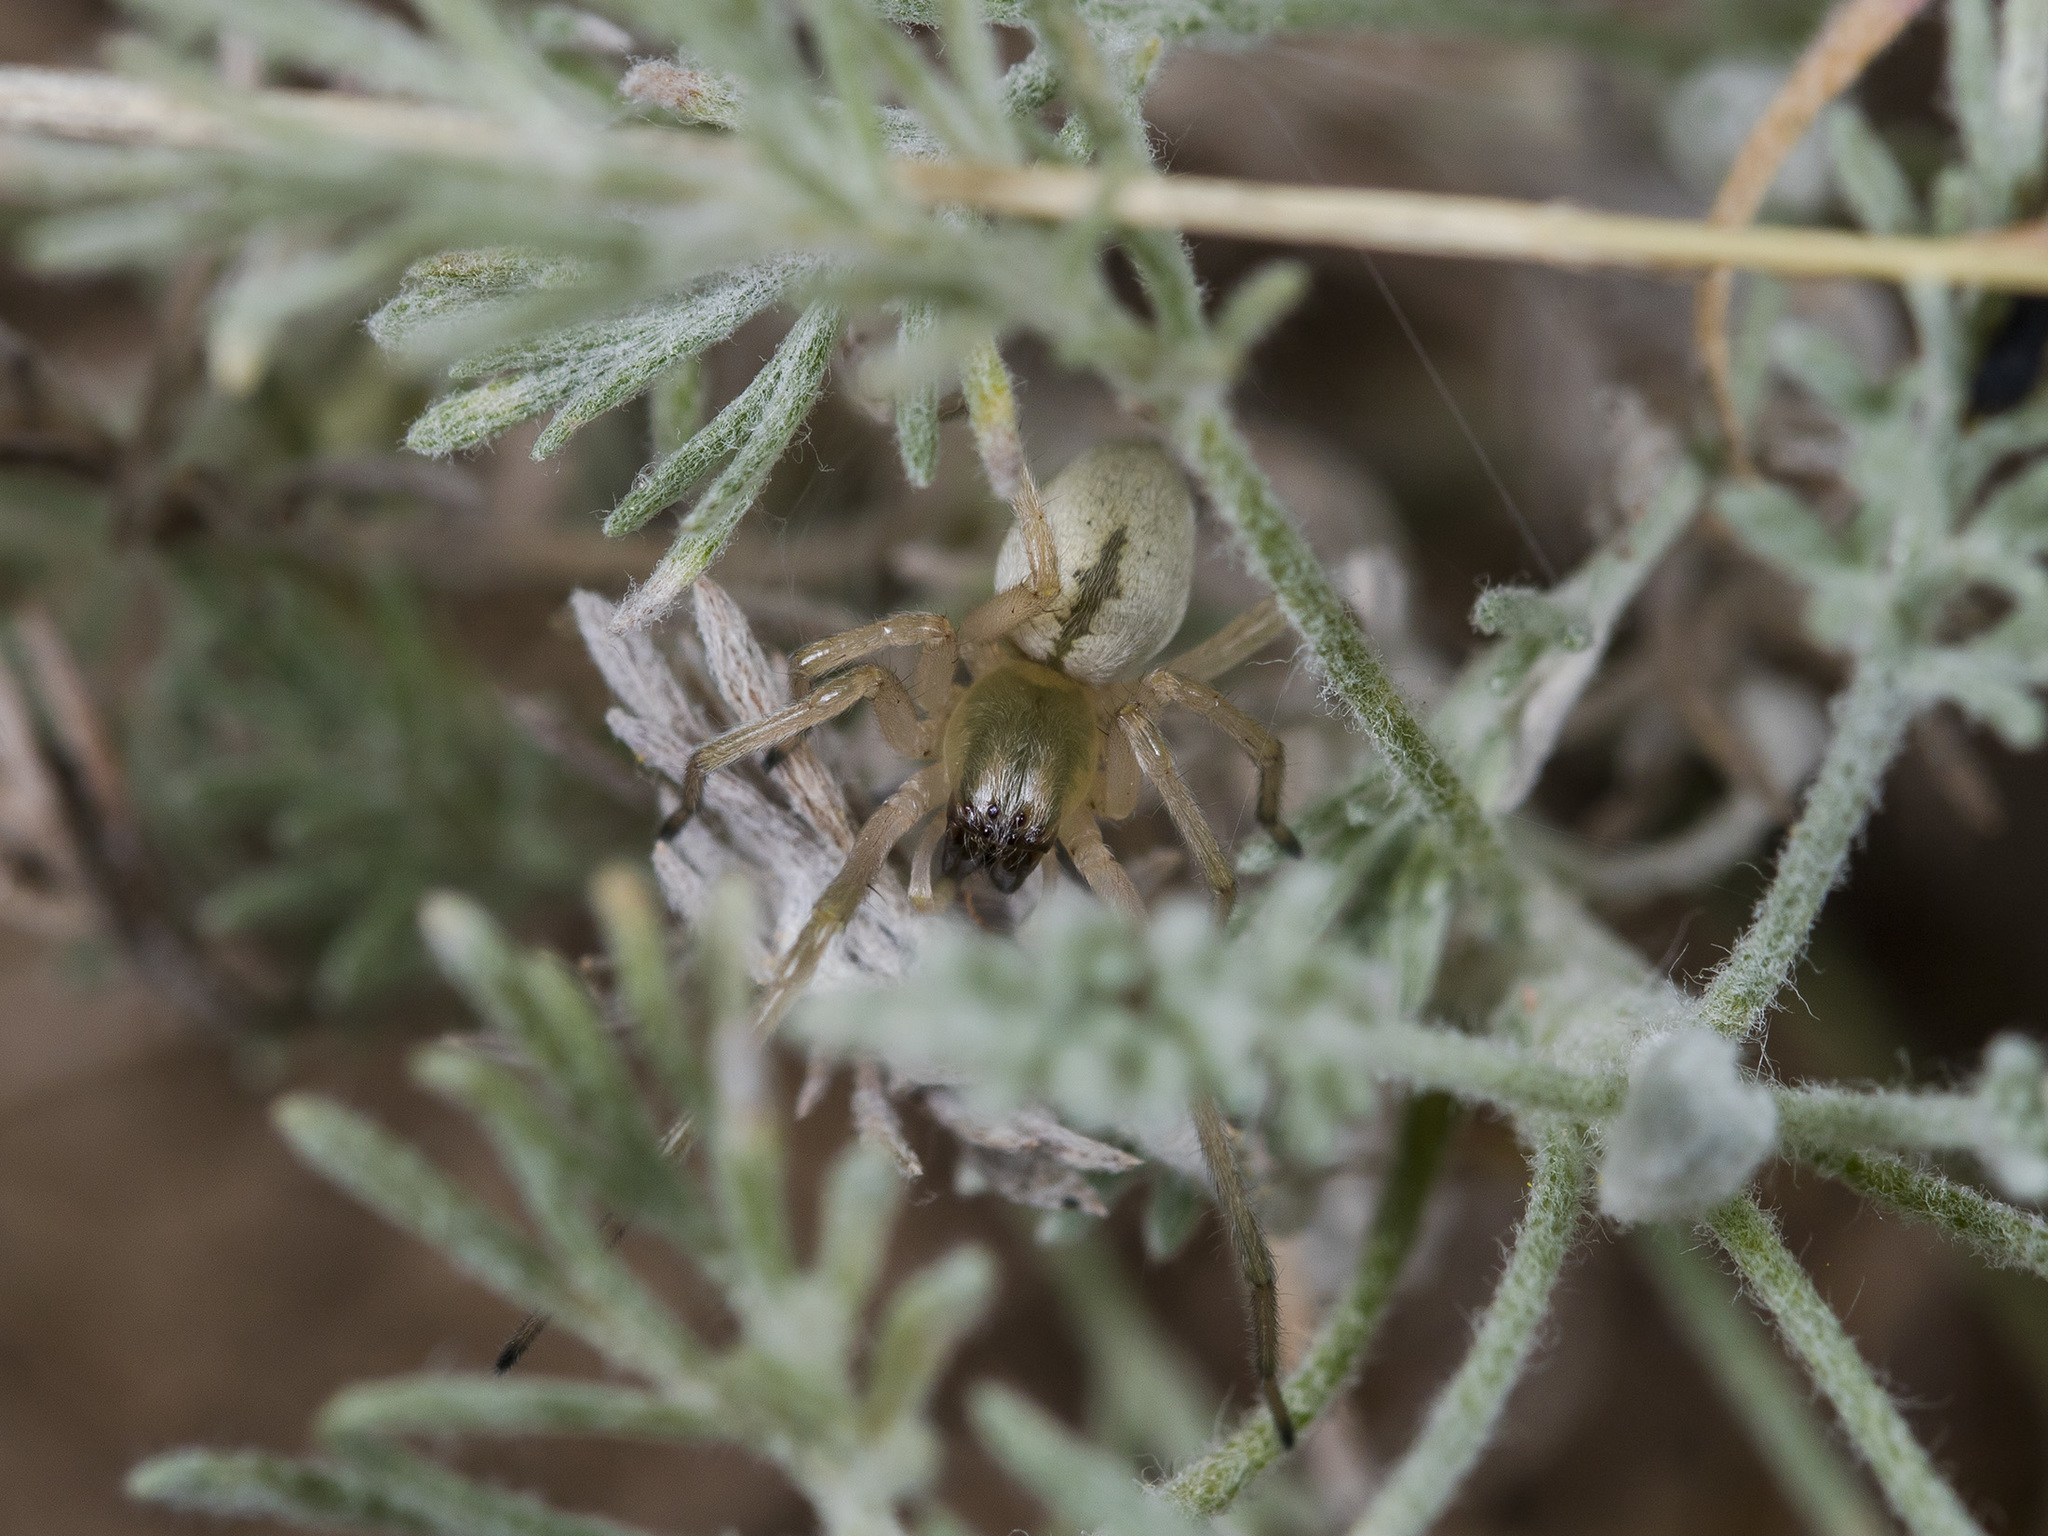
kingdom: Animalia
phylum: Arthropoda
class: Arachnida
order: Araneae
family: Cheiracanthiidae
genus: Cheiracanthium
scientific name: Cheiracanthium virescens
